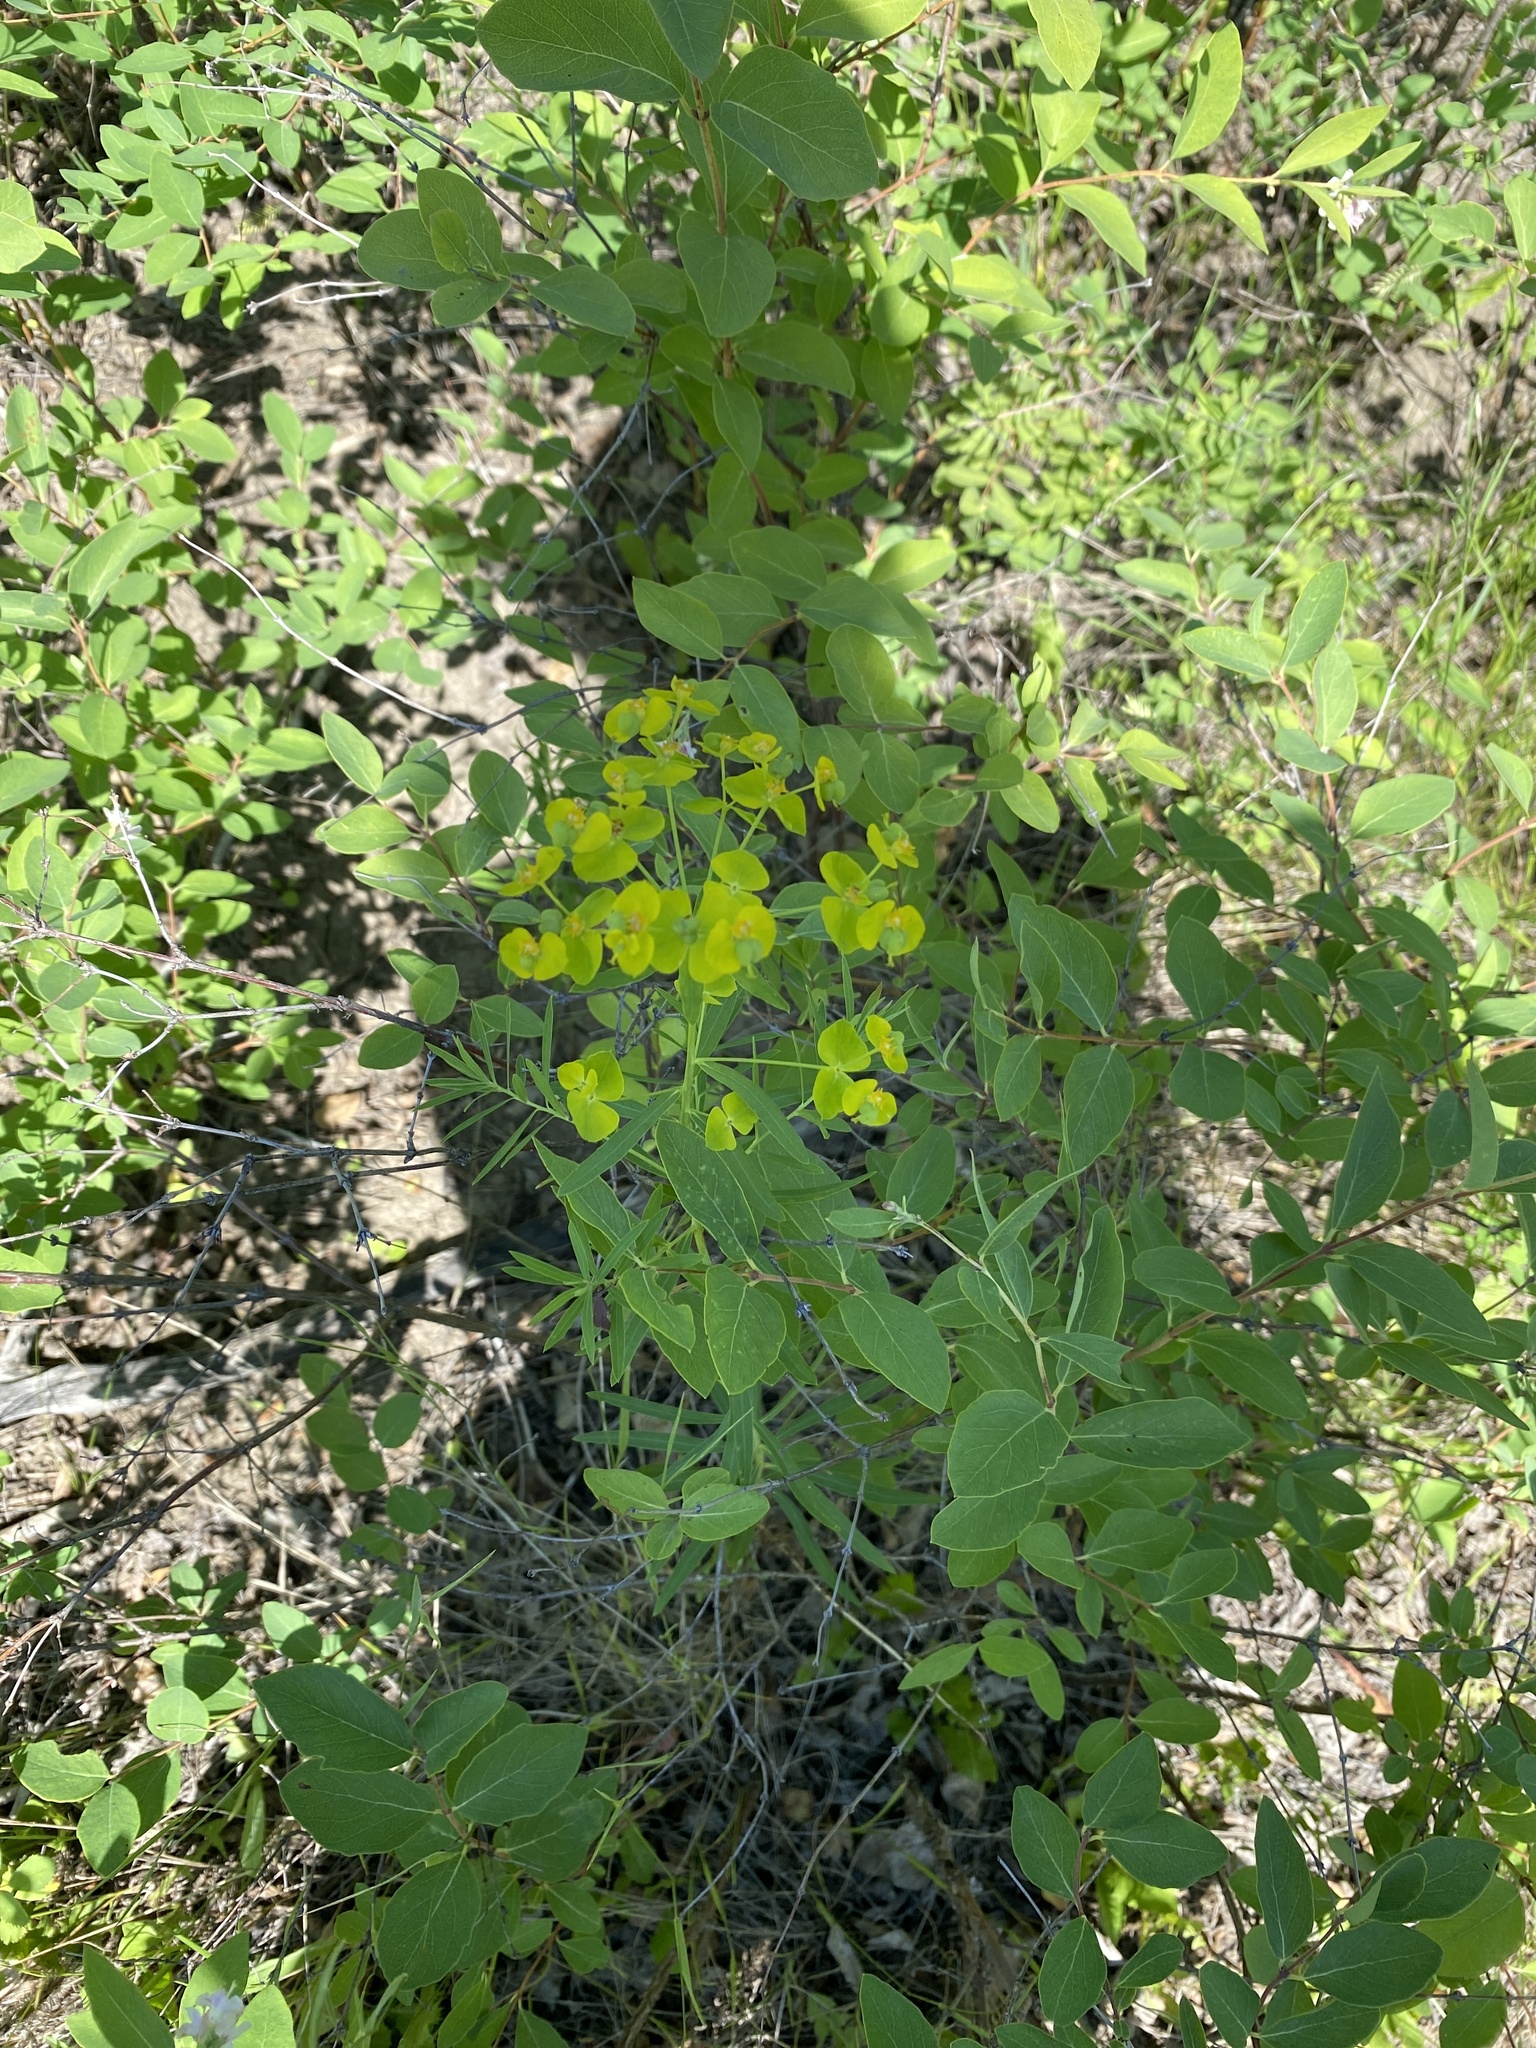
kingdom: Plantae
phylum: Tracheophyta
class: Magnoliopsida
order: Malpighiales
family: Euphorbiaceae
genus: Euphorbia
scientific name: Euphorbia virgata
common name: Leafy spurge
